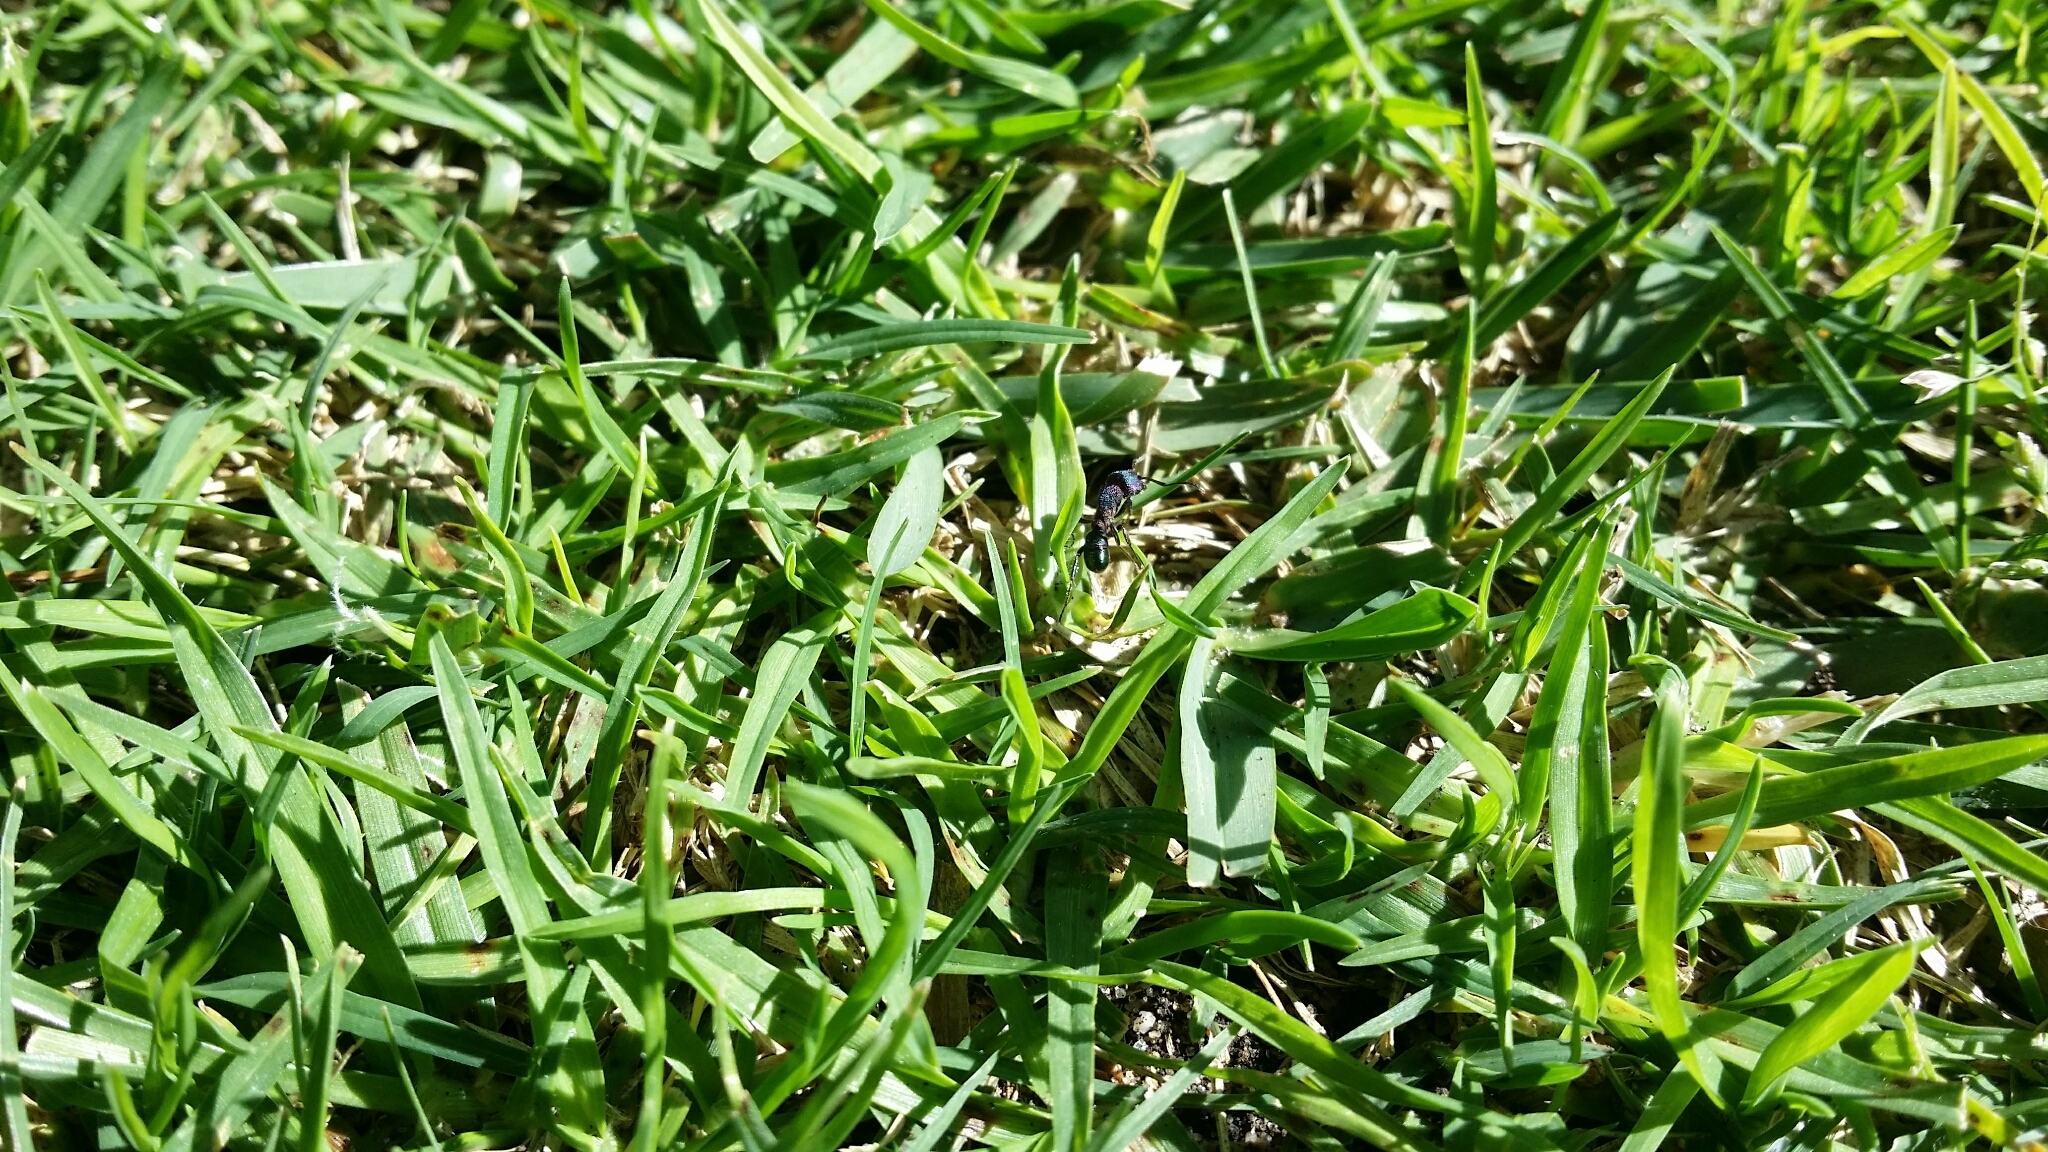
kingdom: Animalia
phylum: Arthropoda
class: Insecta
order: Hymenoptera
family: Formicidae
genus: Rhytidoponera
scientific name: Rhytidoponera metallica
